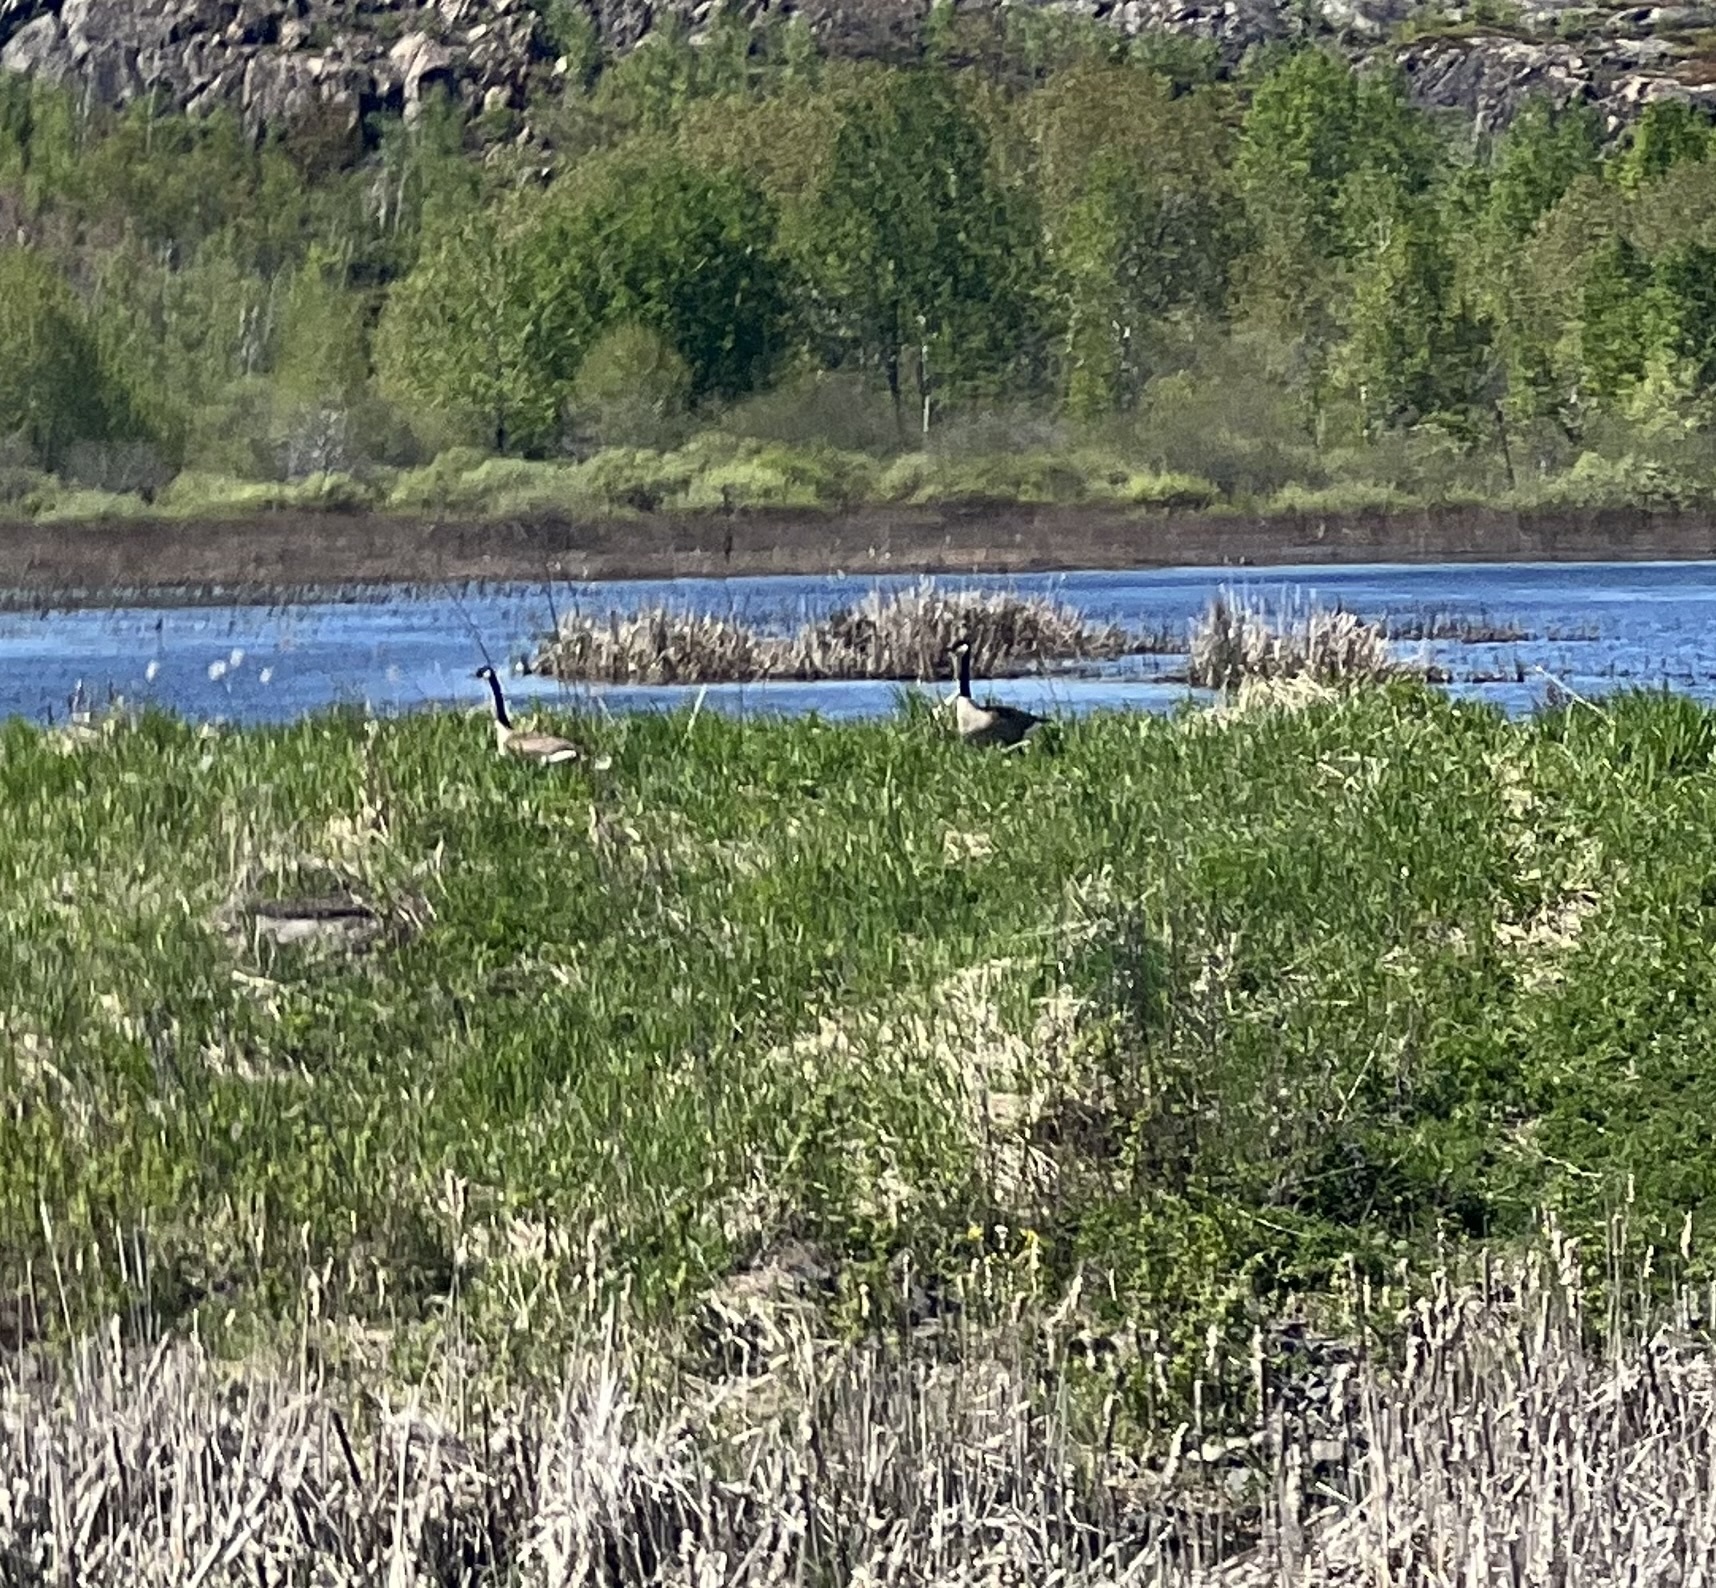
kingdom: Animalia
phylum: Chordata
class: Aves
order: Anseriformes
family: Anatidae
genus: Branta
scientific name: Branta canadensis
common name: Canada goose
